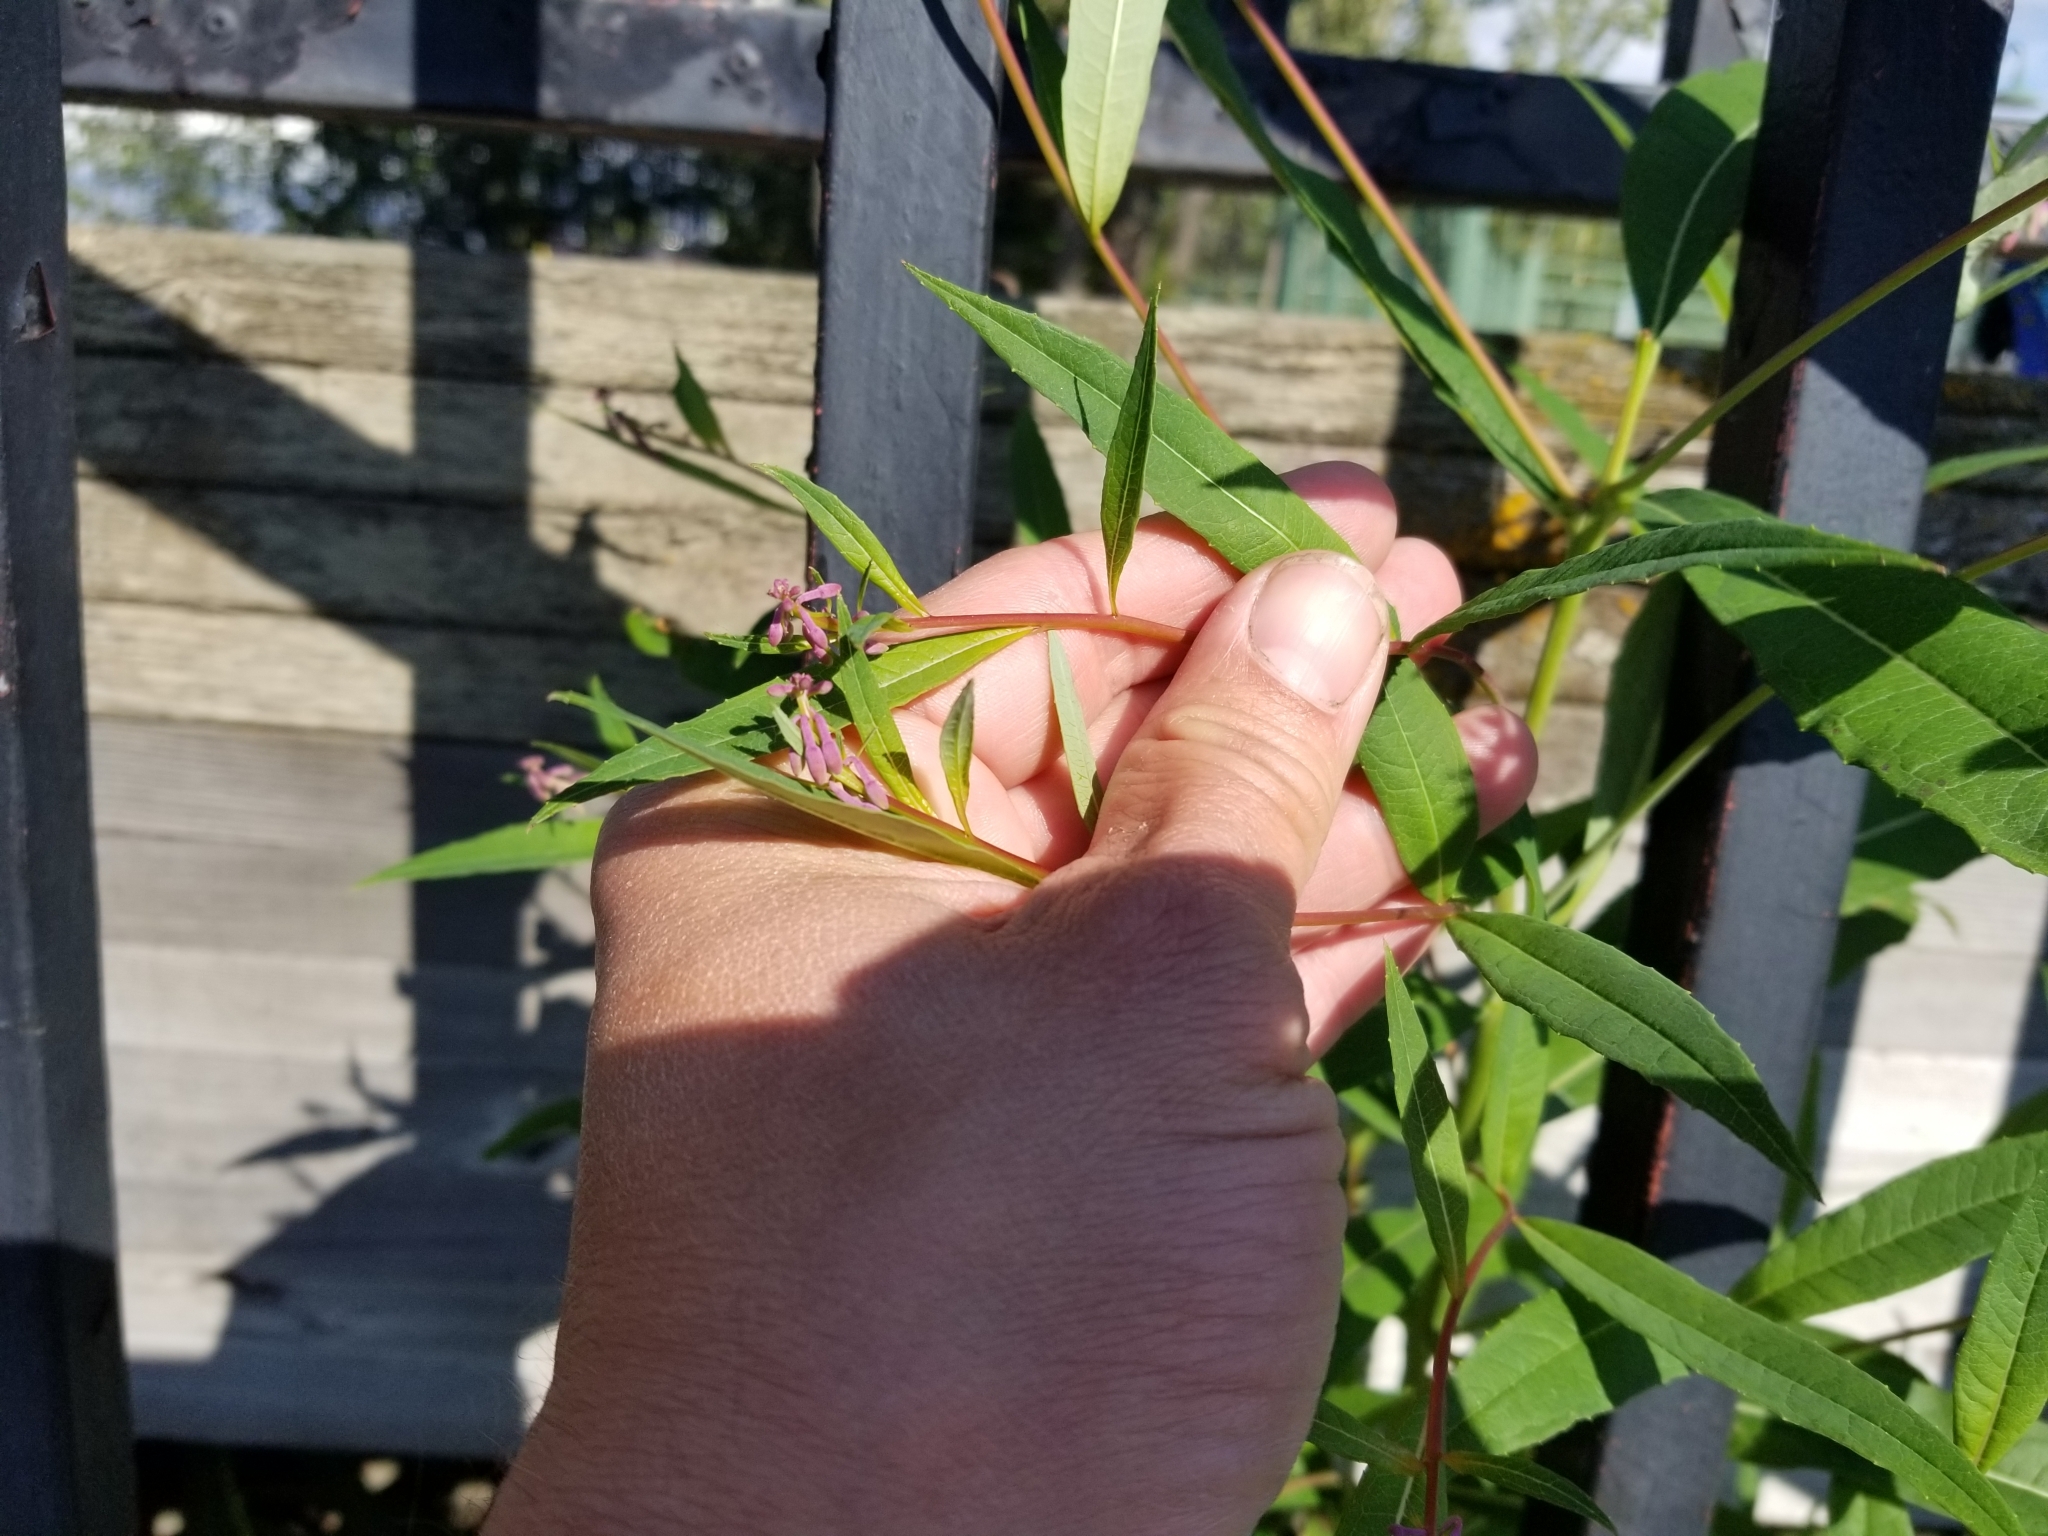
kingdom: Plantae
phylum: Tracheophyta
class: Magnoliopsida
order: Myrtales
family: Onagraceae
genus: Chamaenerion
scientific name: Chamaenerion angustifolium
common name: Fireweed
